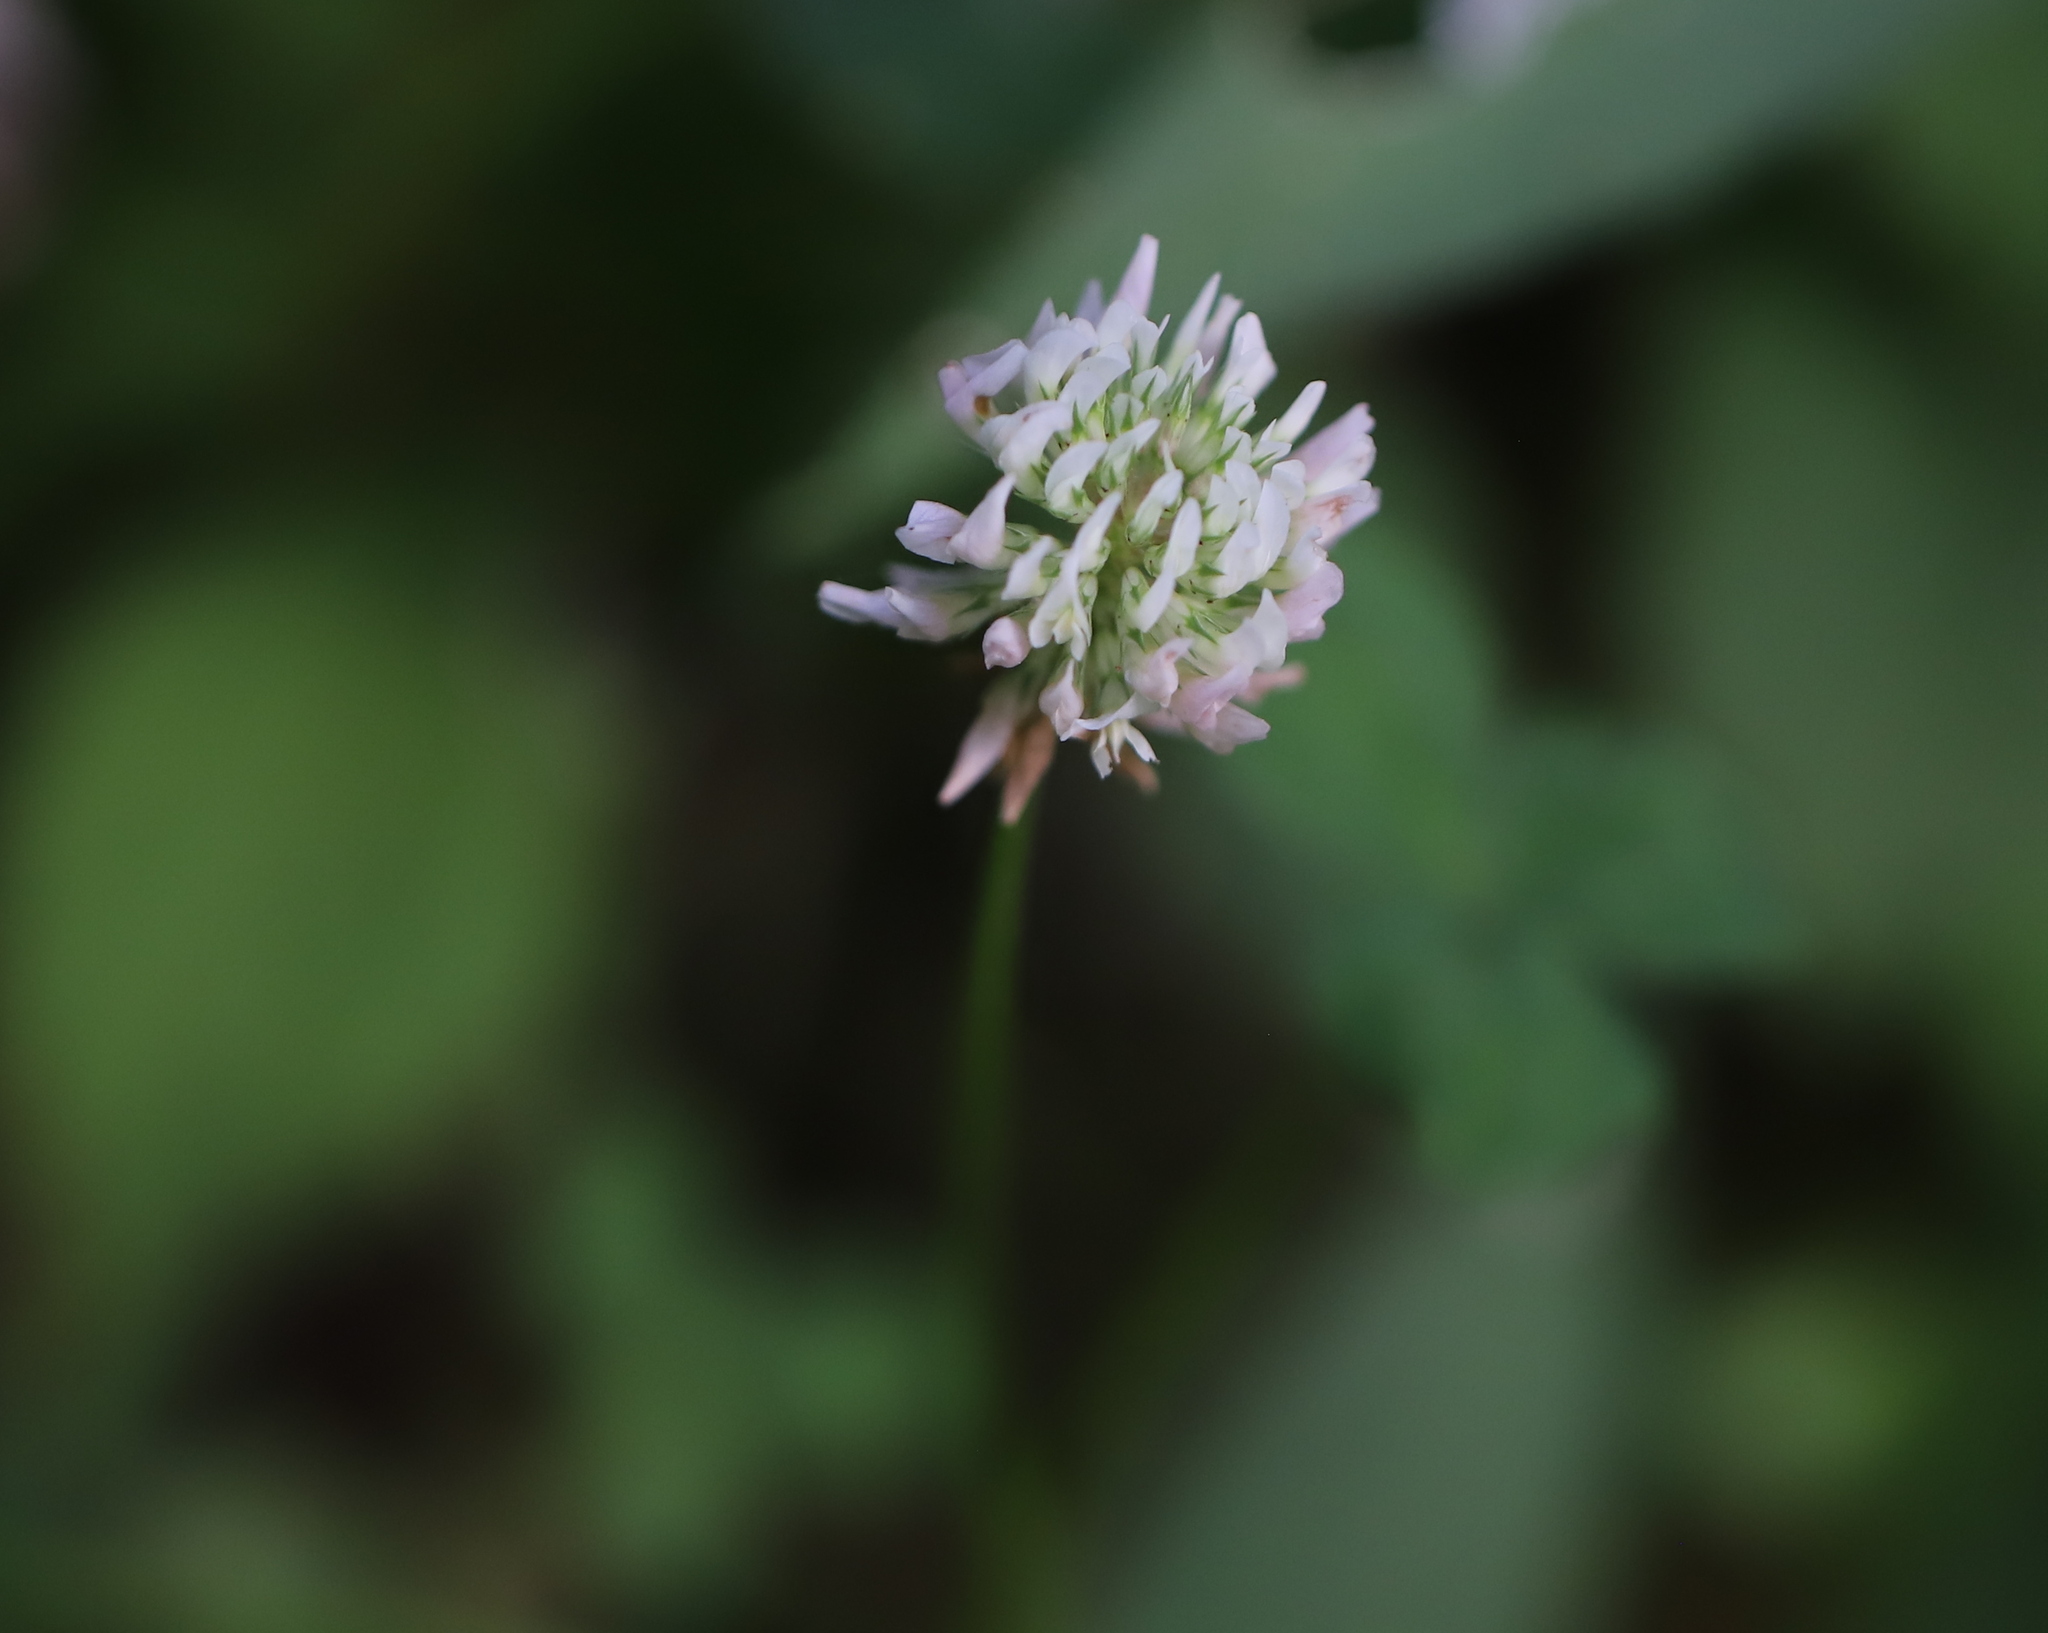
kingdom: Plantae
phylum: Tracheophyta
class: Magnoliopsida
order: Fabales
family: Fabaceae
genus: Trifolium
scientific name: Trifolium repens
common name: White clover
